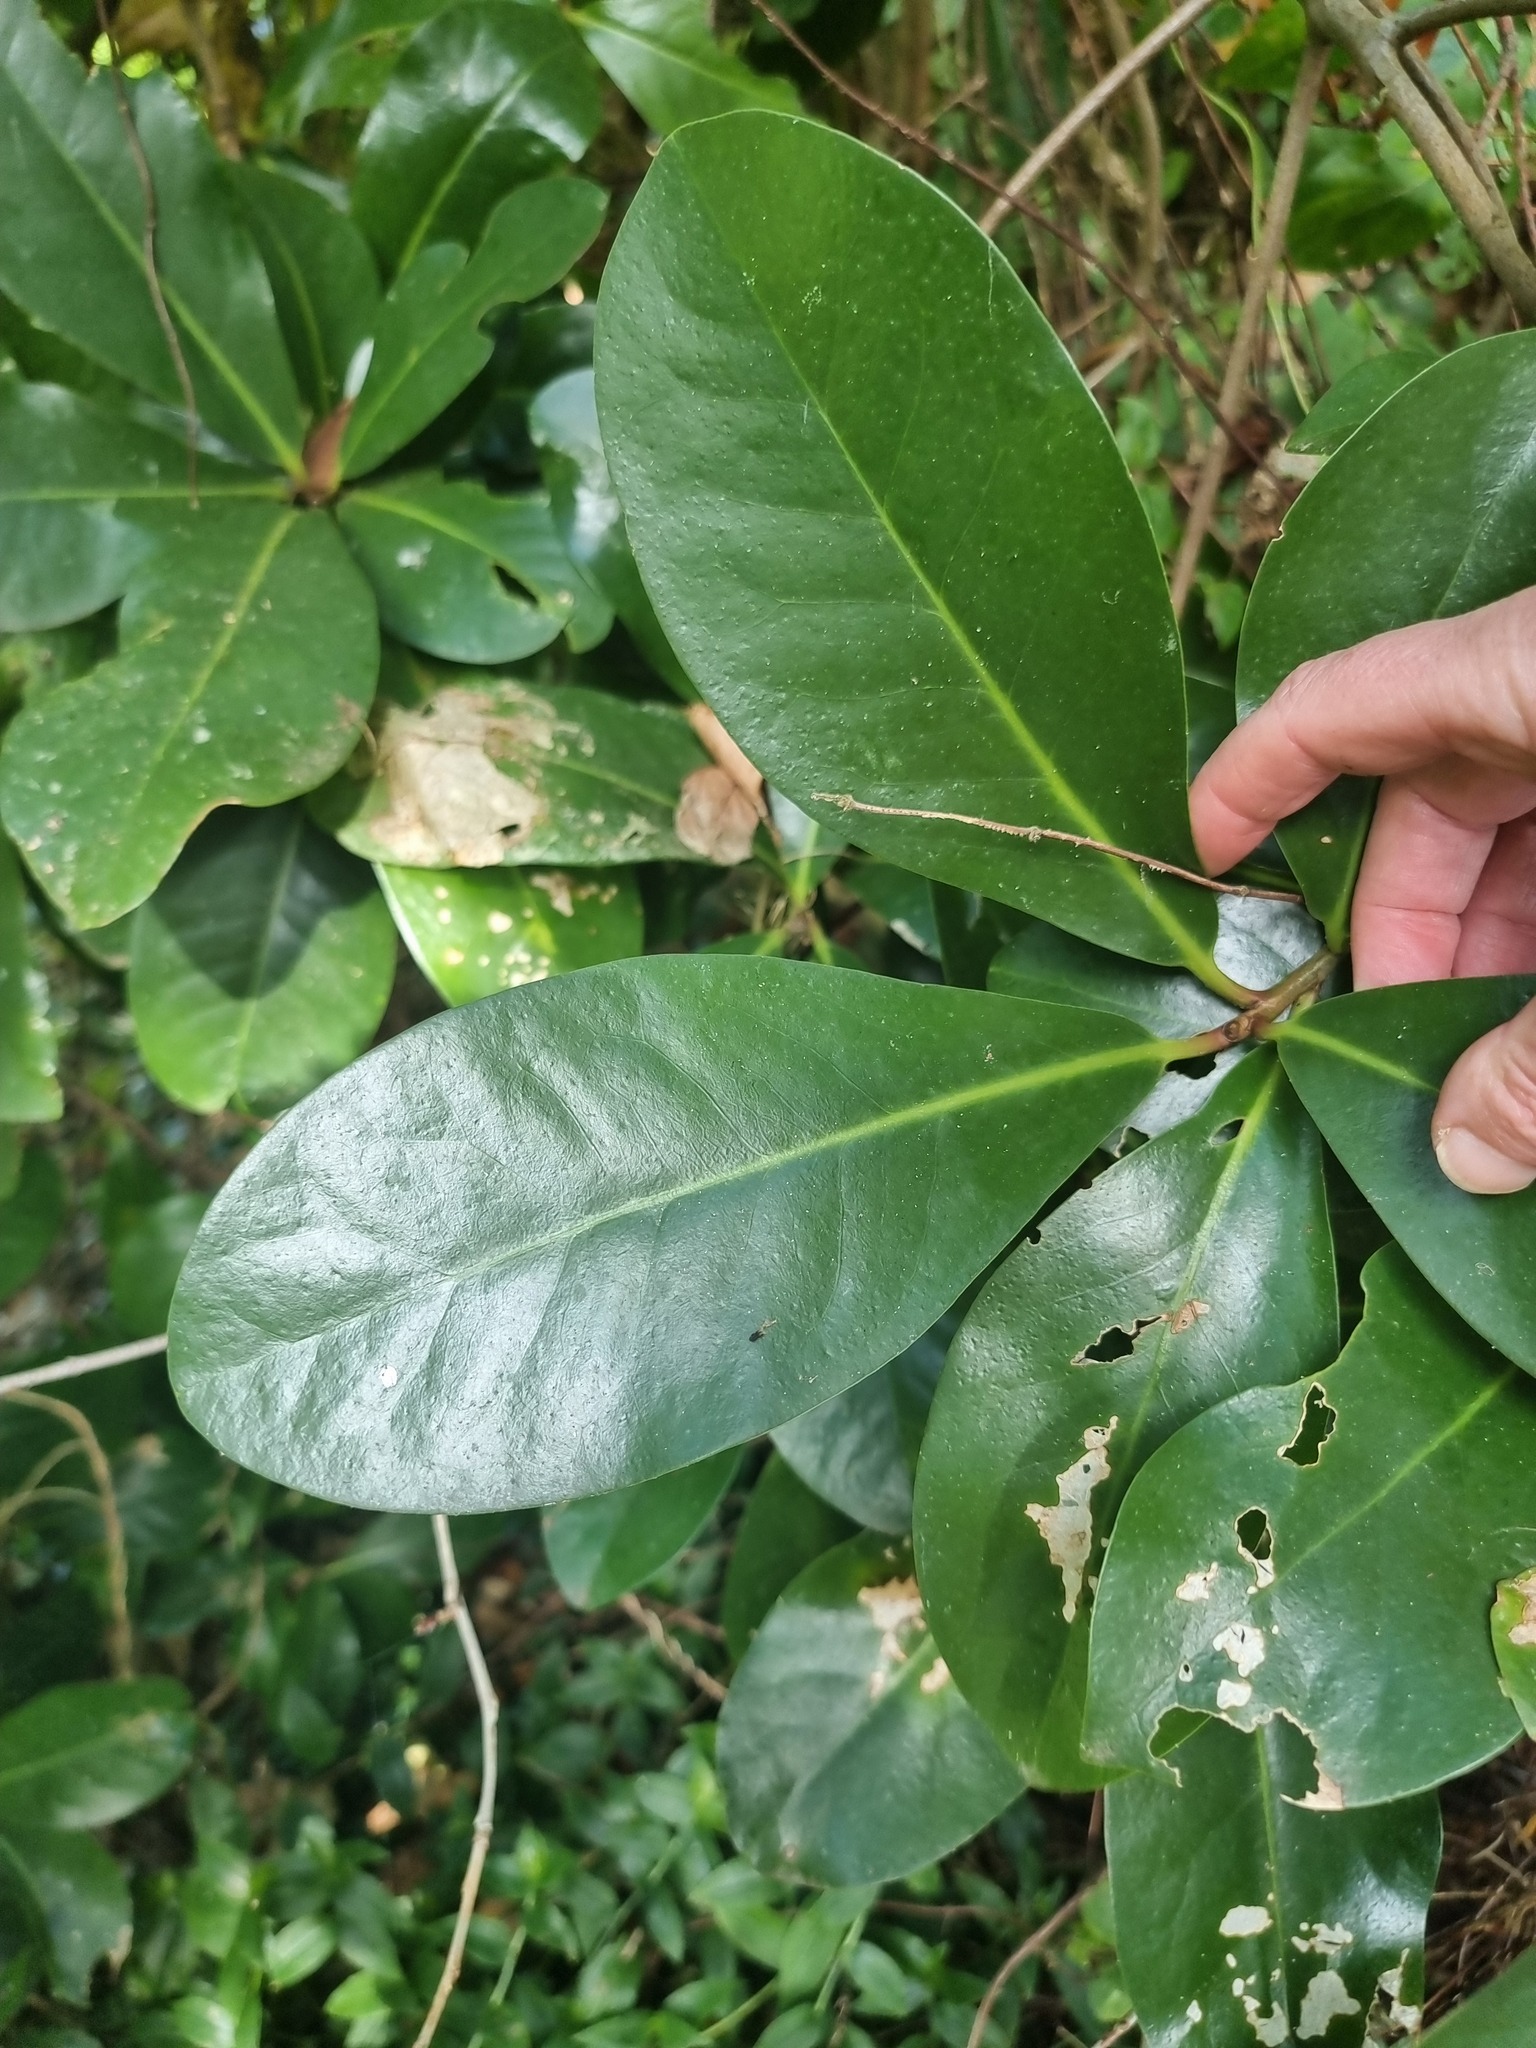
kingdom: Plantae
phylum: Tracheophyta
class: Magnoliopsida
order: Cucurbitales
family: Corynocarpaceae
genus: Corynocarpus
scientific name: Corynocarpus laevigatus
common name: New zealand laurel
